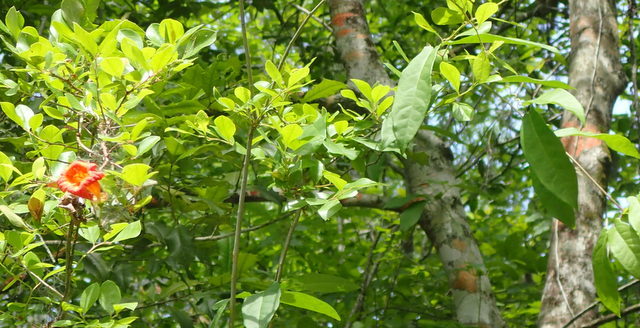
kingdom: Plantae
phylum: Tracheophyta
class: Magnoliopsida
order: Lamiales
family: Bignoniaceae
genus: Bignonia
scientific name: Bignonia capreolata
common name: Crossvine
